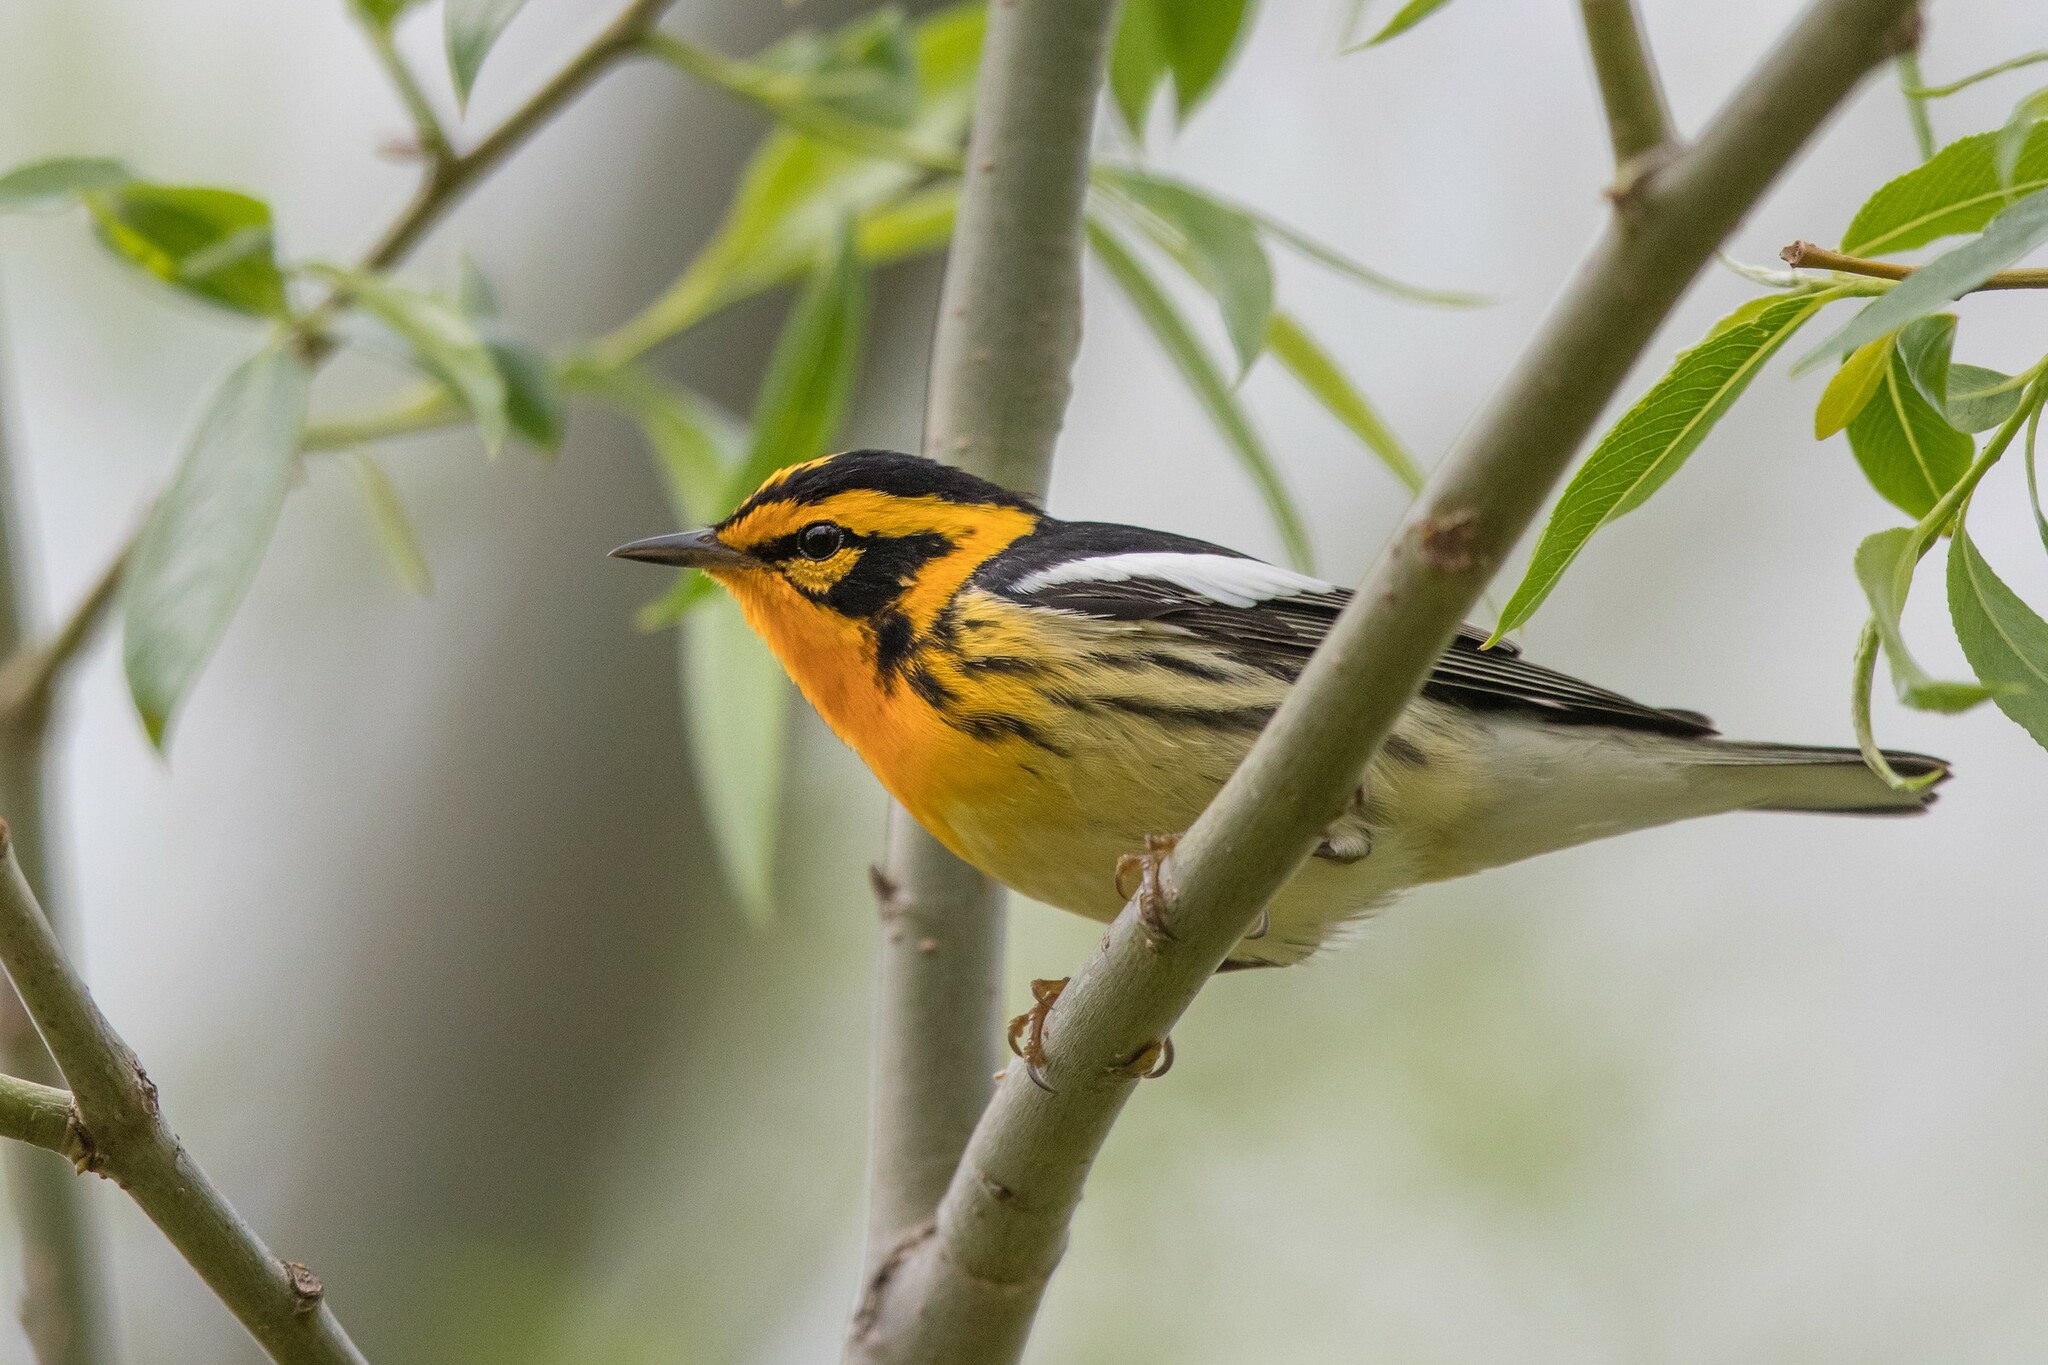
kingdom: Animalia
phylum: Chordata
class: Aves
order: Passeriformes
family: Parulidae
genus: Setophaga
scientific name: Setophaga fusca
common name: Blackburnian warbler
